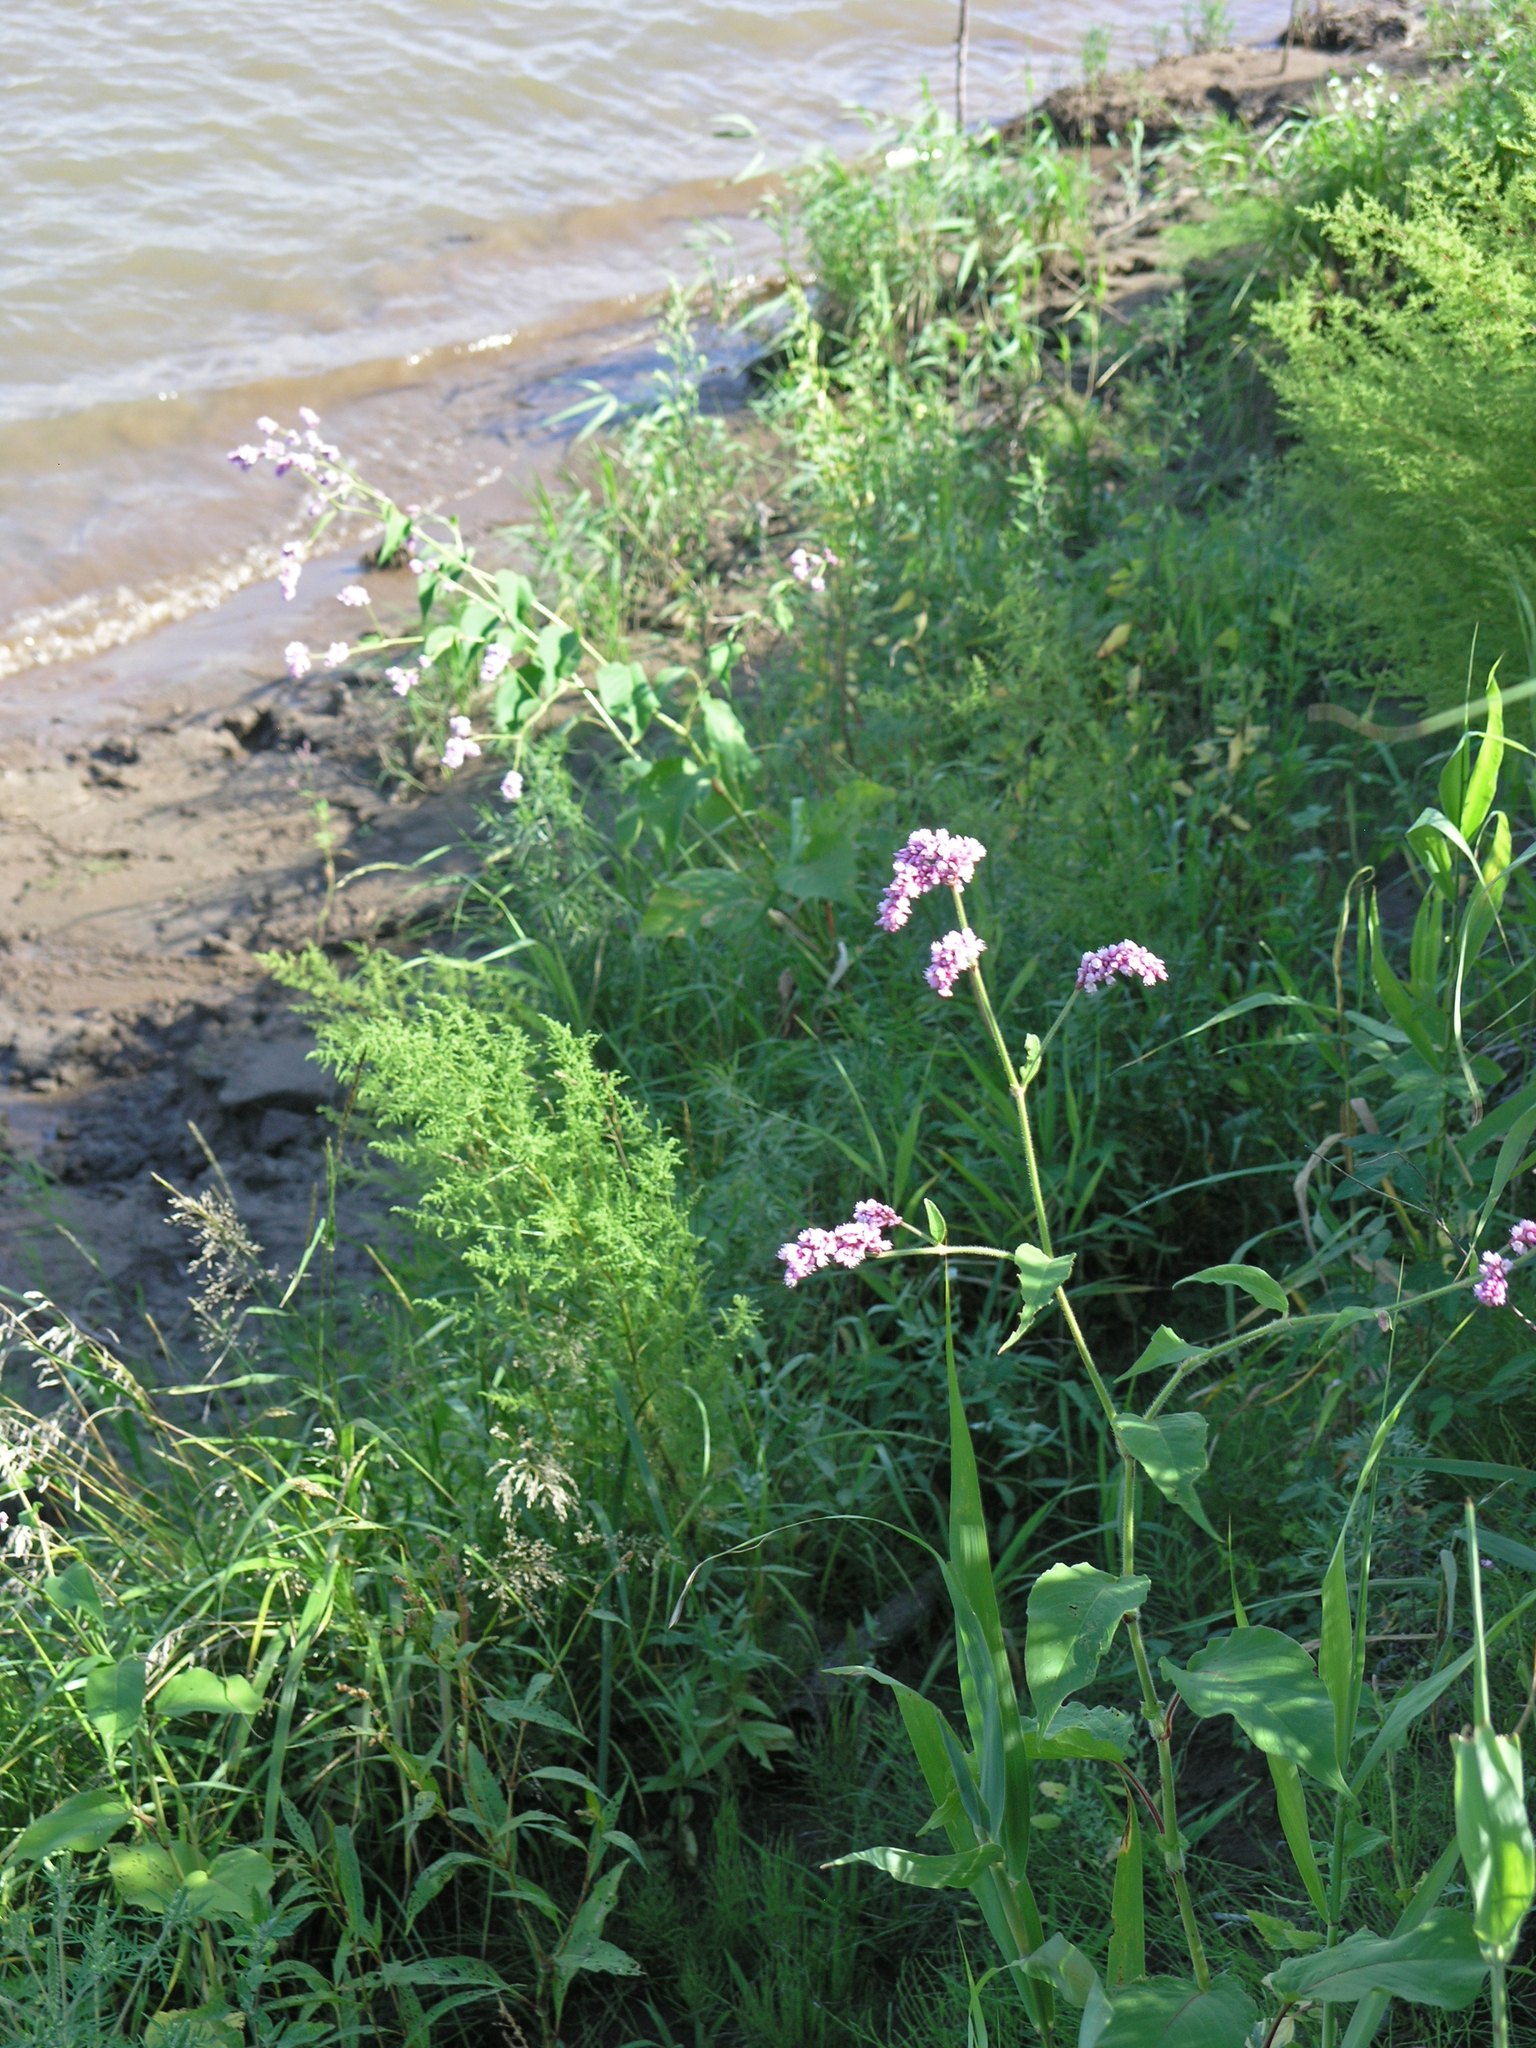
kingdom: Plantae
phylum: Tracheophyta
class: Magnoliopsida
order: Caryophyllales
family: Polygonaceae
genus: Persicaria
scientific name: Persicaria orientalis
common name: Kiss-me-over-the-garden-gate
